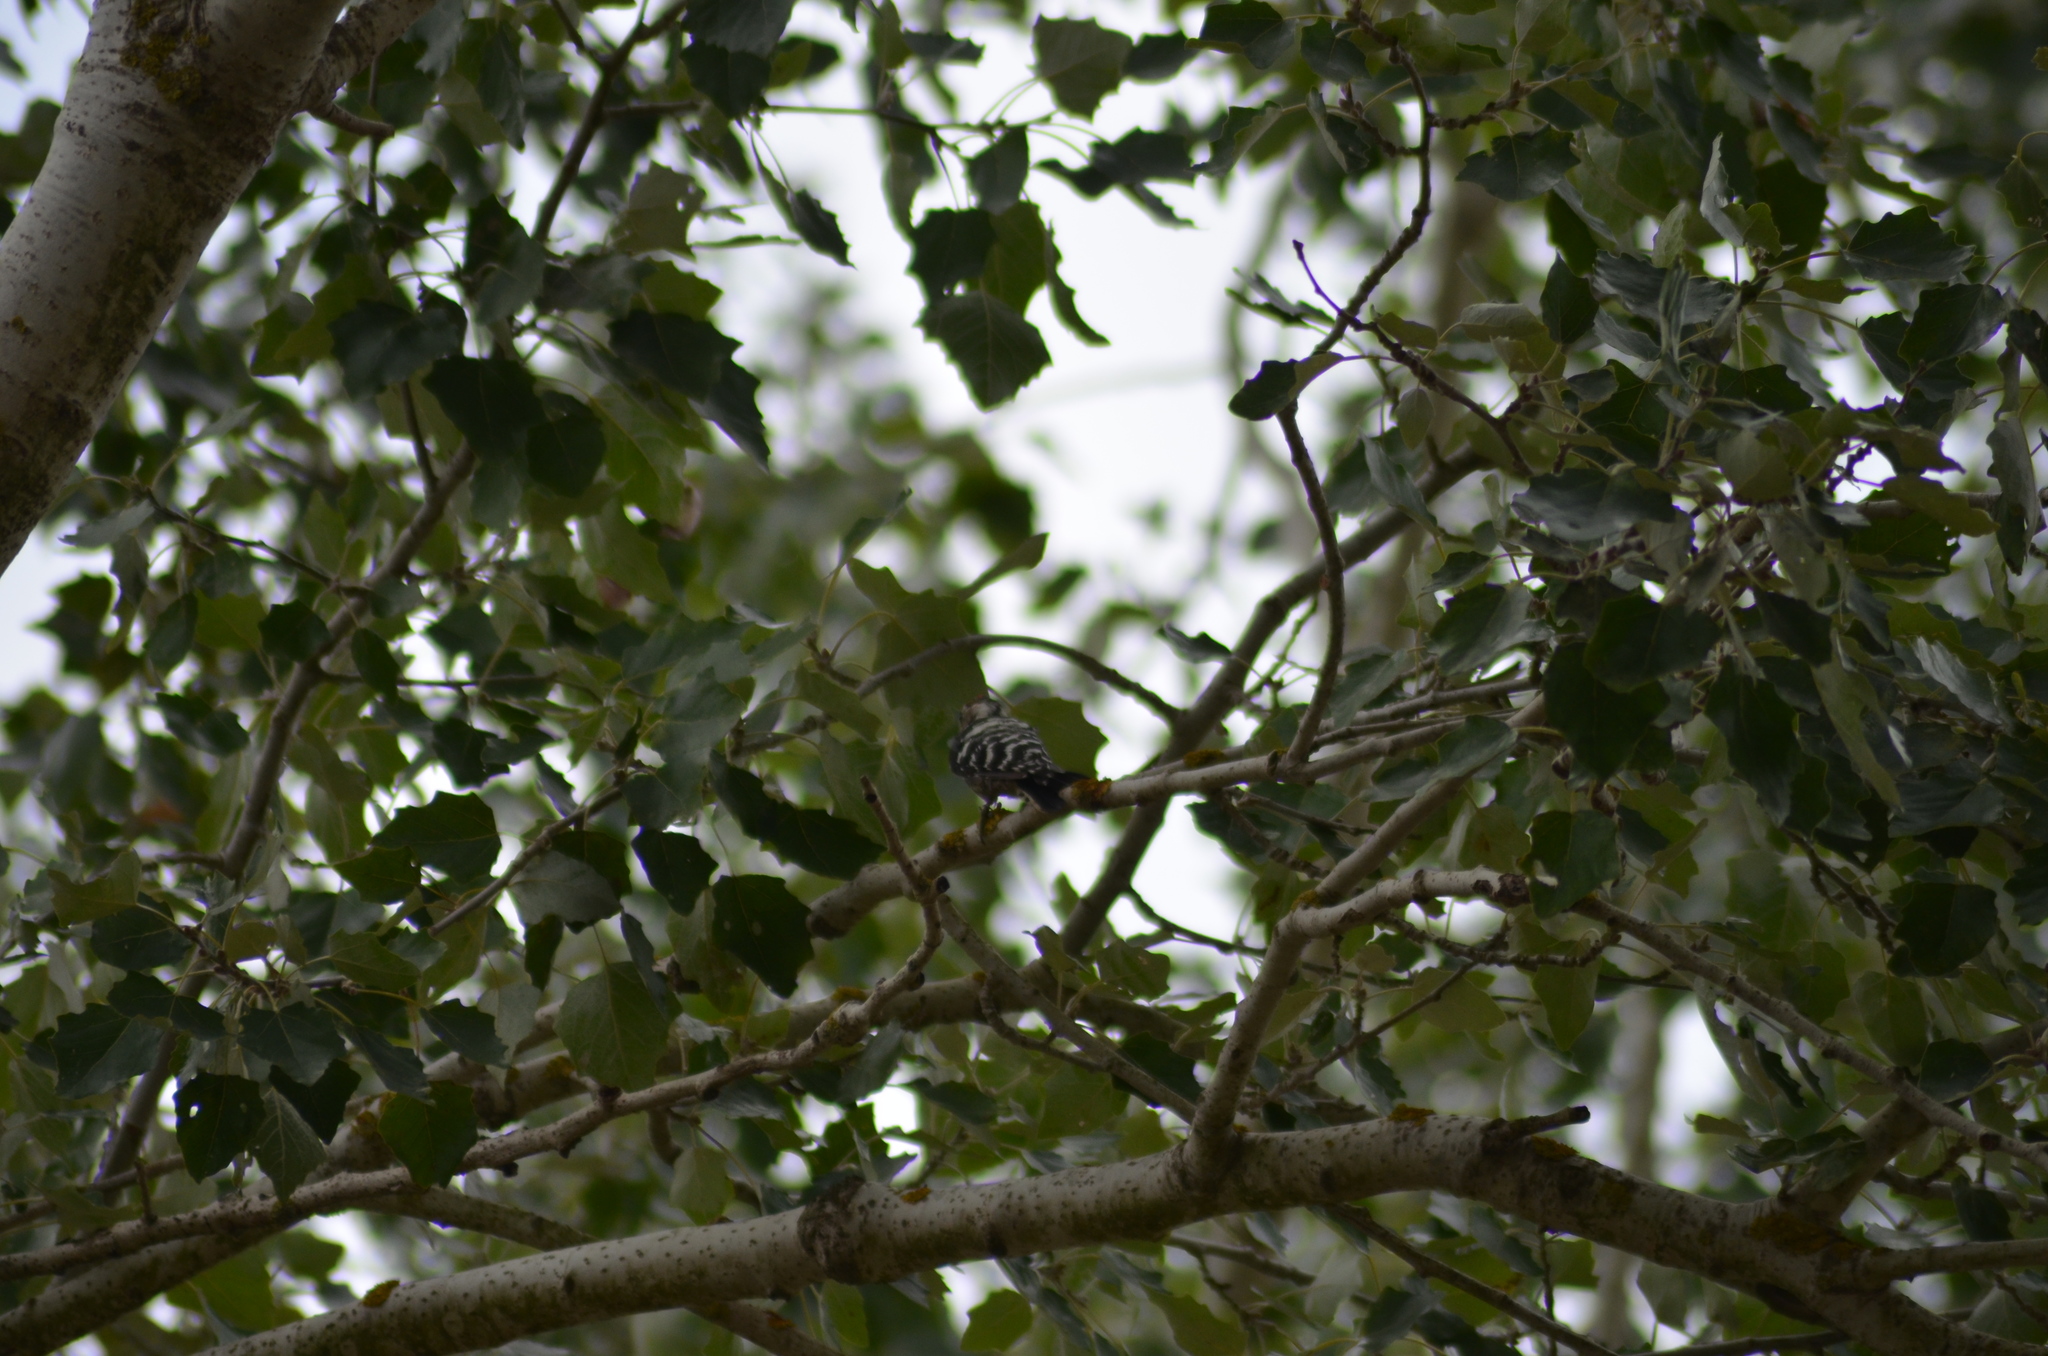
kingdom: Animalia
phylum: Chordata
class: Aves
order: Piciformes
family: Picidae
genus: Dryobates
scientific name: Dryobates minor
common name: Lesser spotted woodpecker
